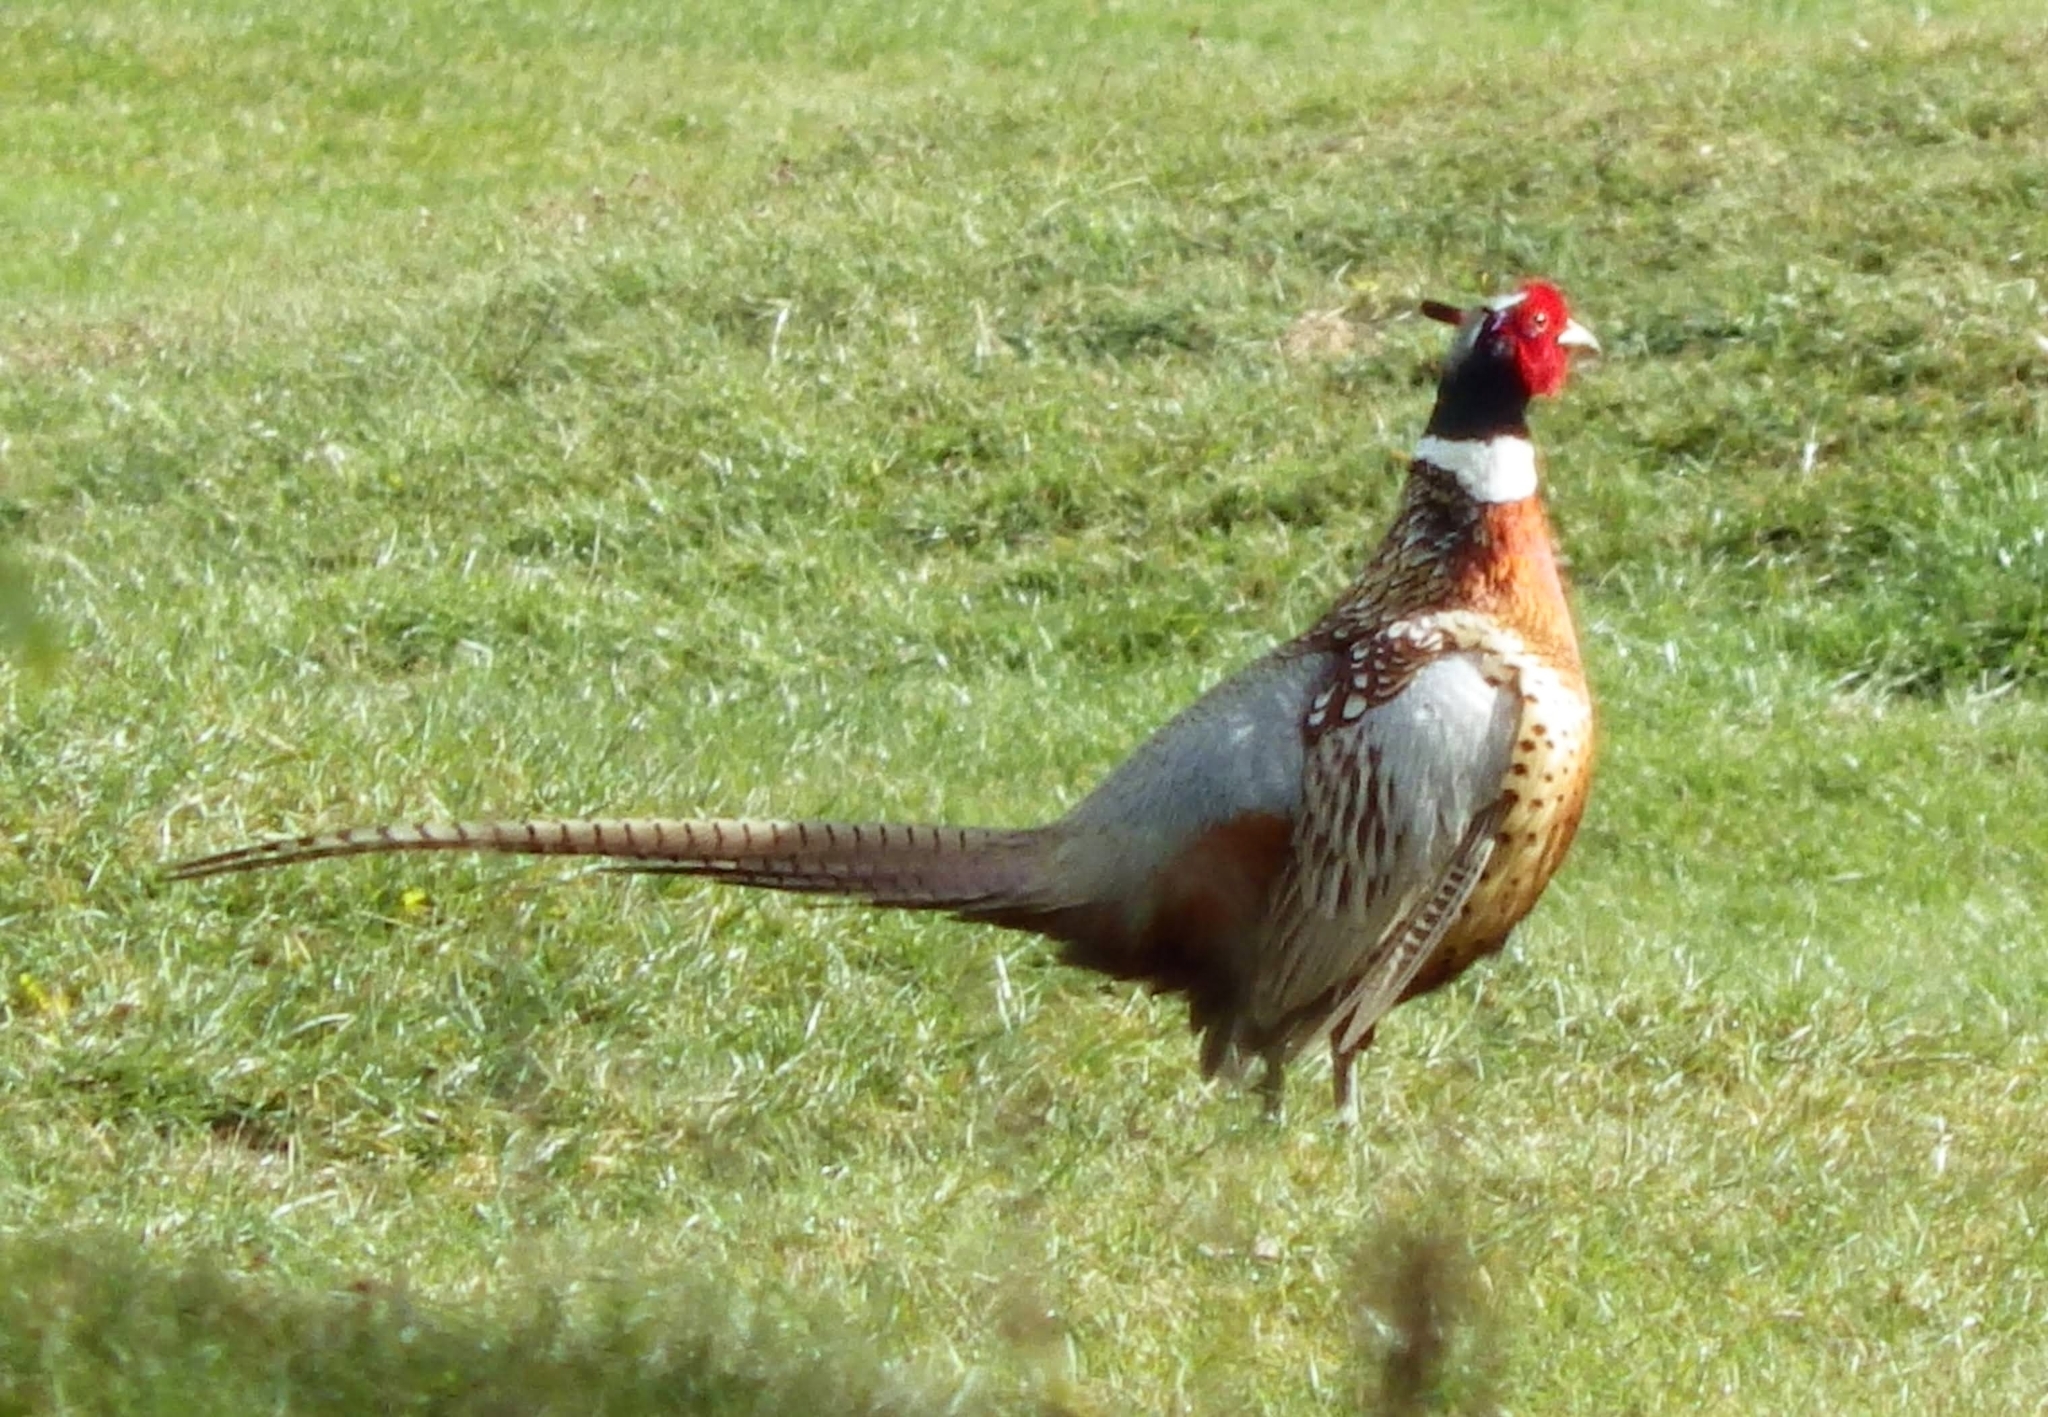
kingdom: Animalia
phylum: Chordata
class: Aves
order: Galliformes
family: Phasianidae
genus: Phasianus
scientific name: Phasianus colchicus
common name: Common pheasant
